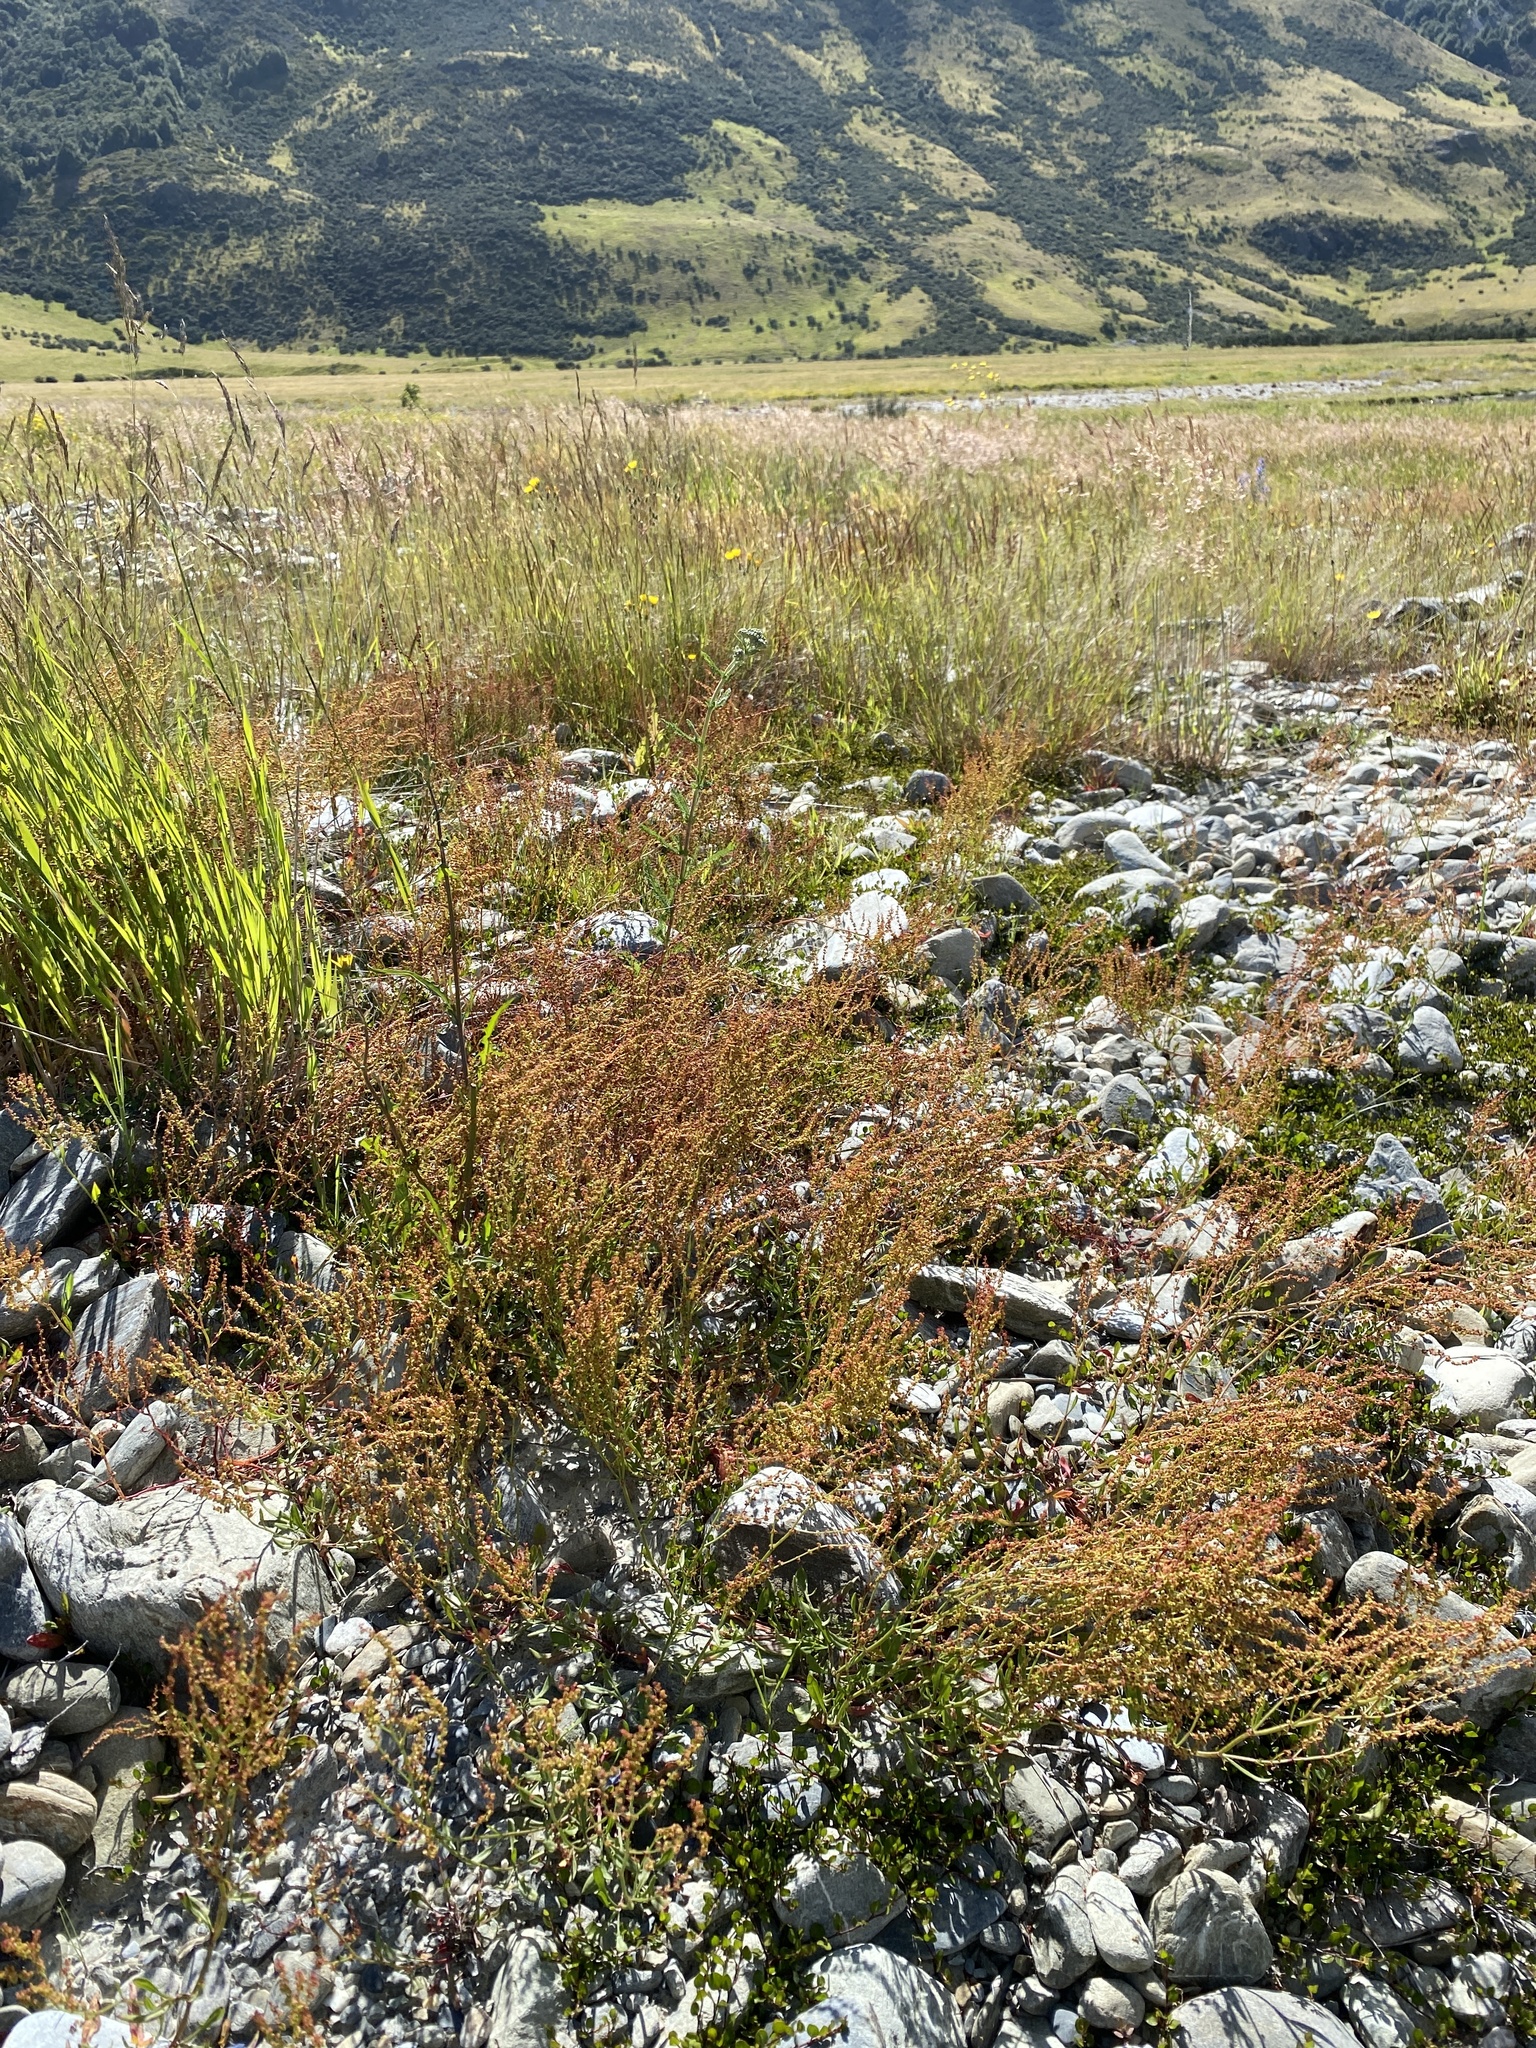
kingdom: Plantae
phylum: Tracheophyta
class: Magnoliopsida
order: Caryophyllales
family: Polygonaceae
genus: Rumex
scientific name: Rumex acetosella
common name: Common sheep sorrel
